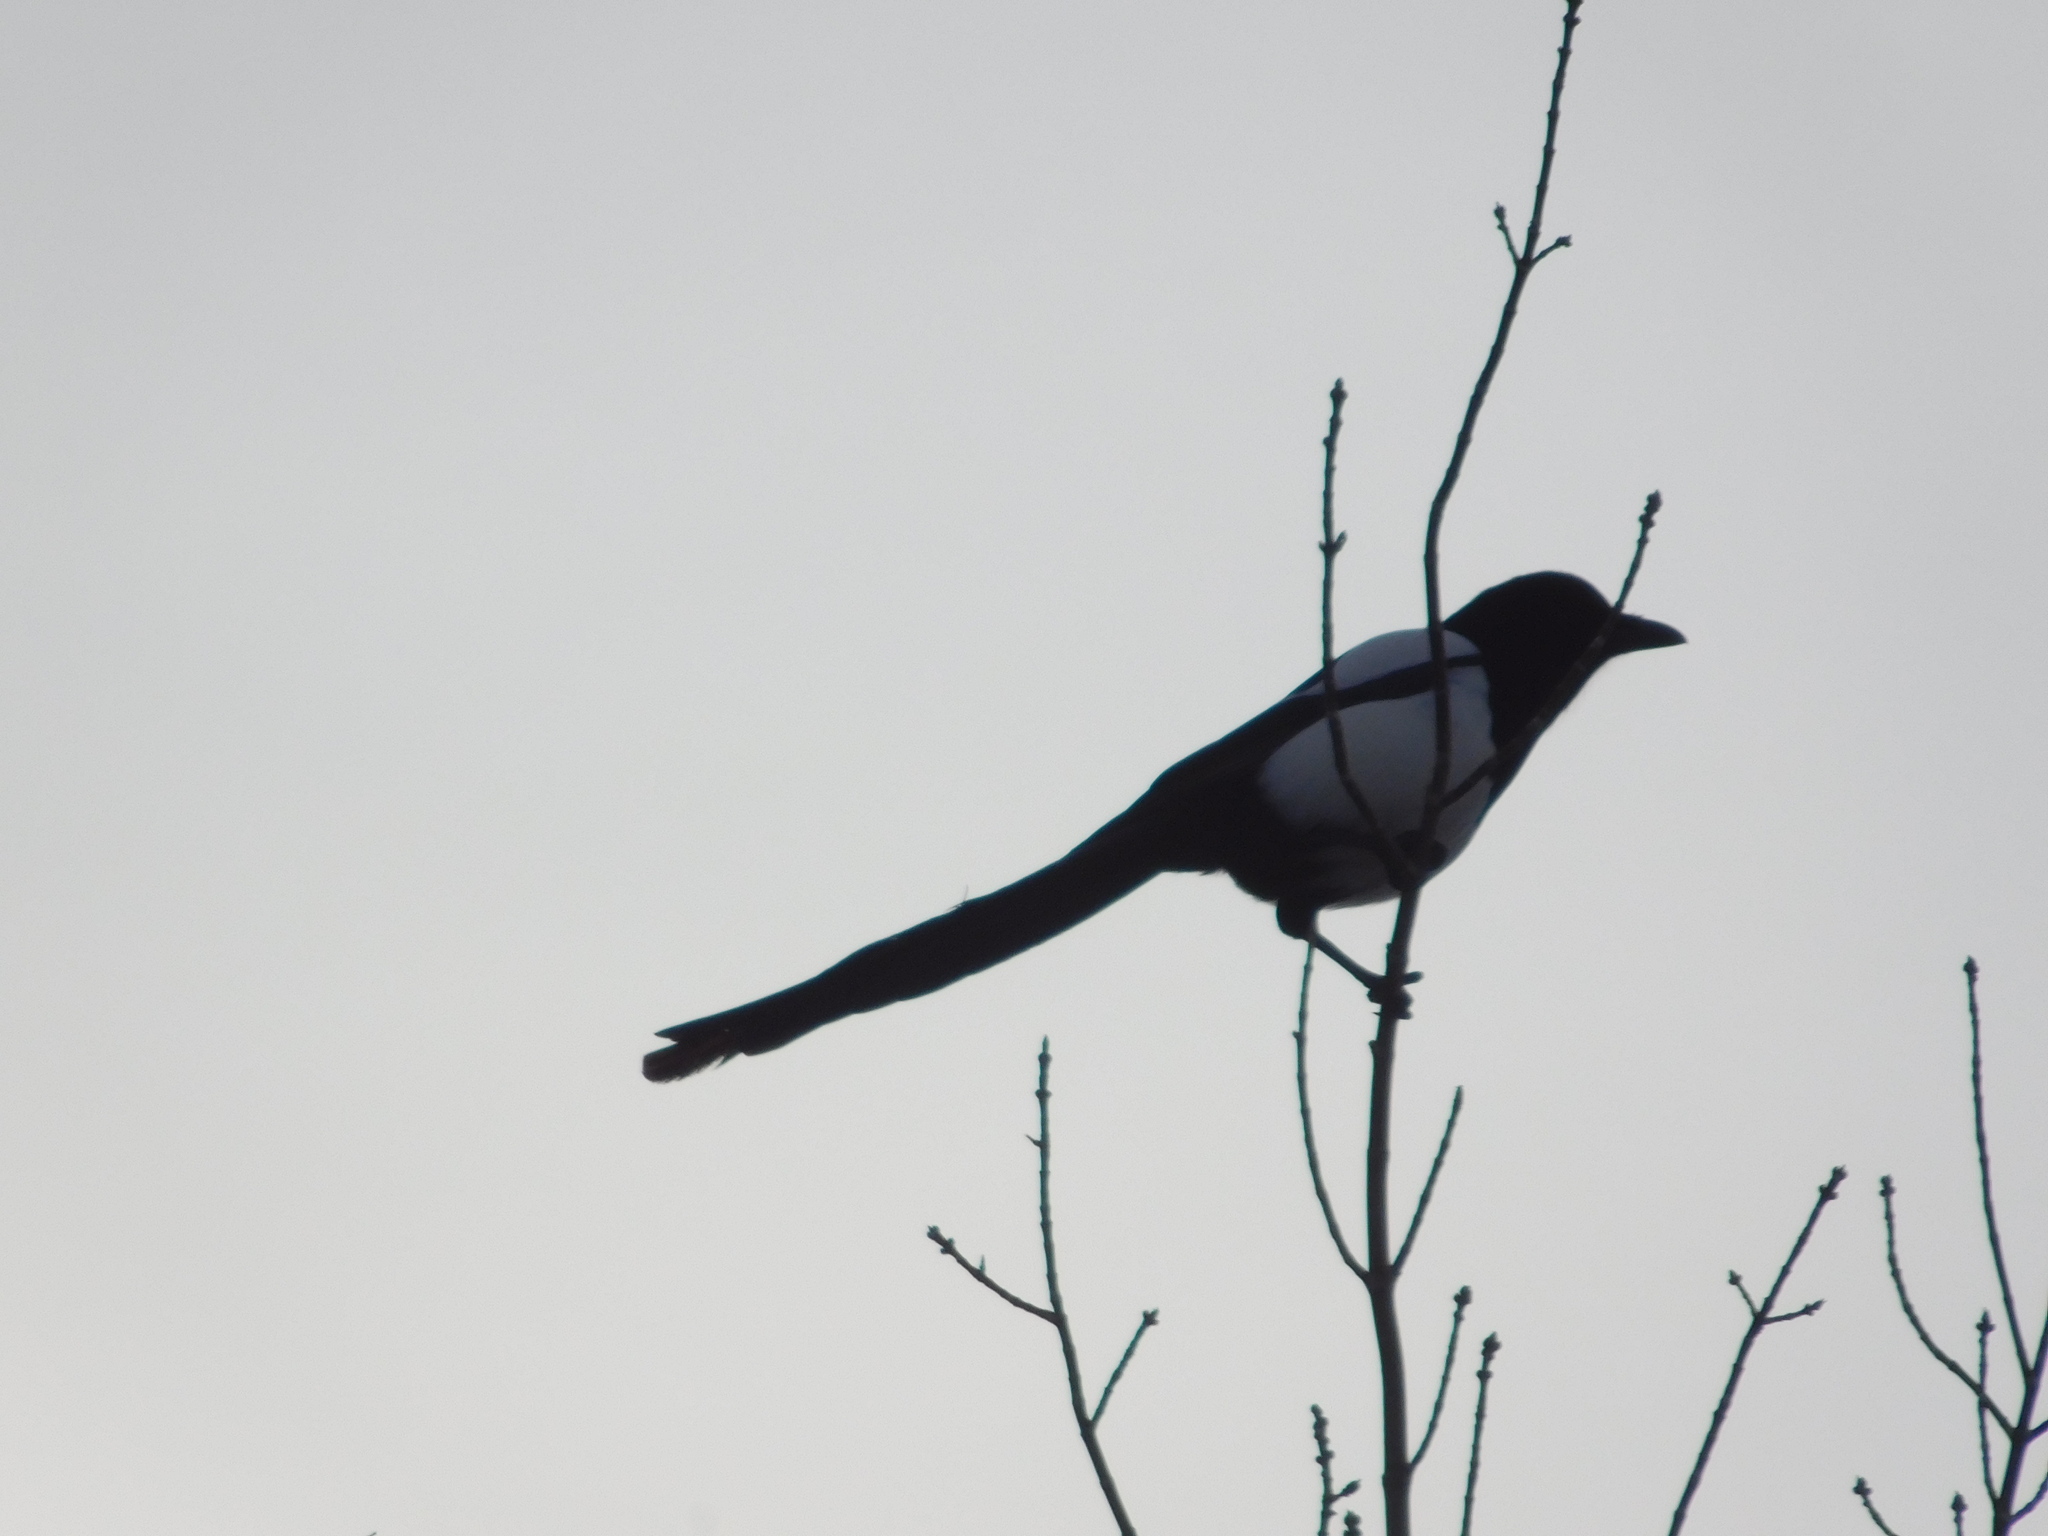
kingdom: Animalia
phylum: Chordata
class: Aves
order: Passeriformes
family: Corvidae
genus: Pica
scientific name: Pica pica
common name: Eurasian magpie
